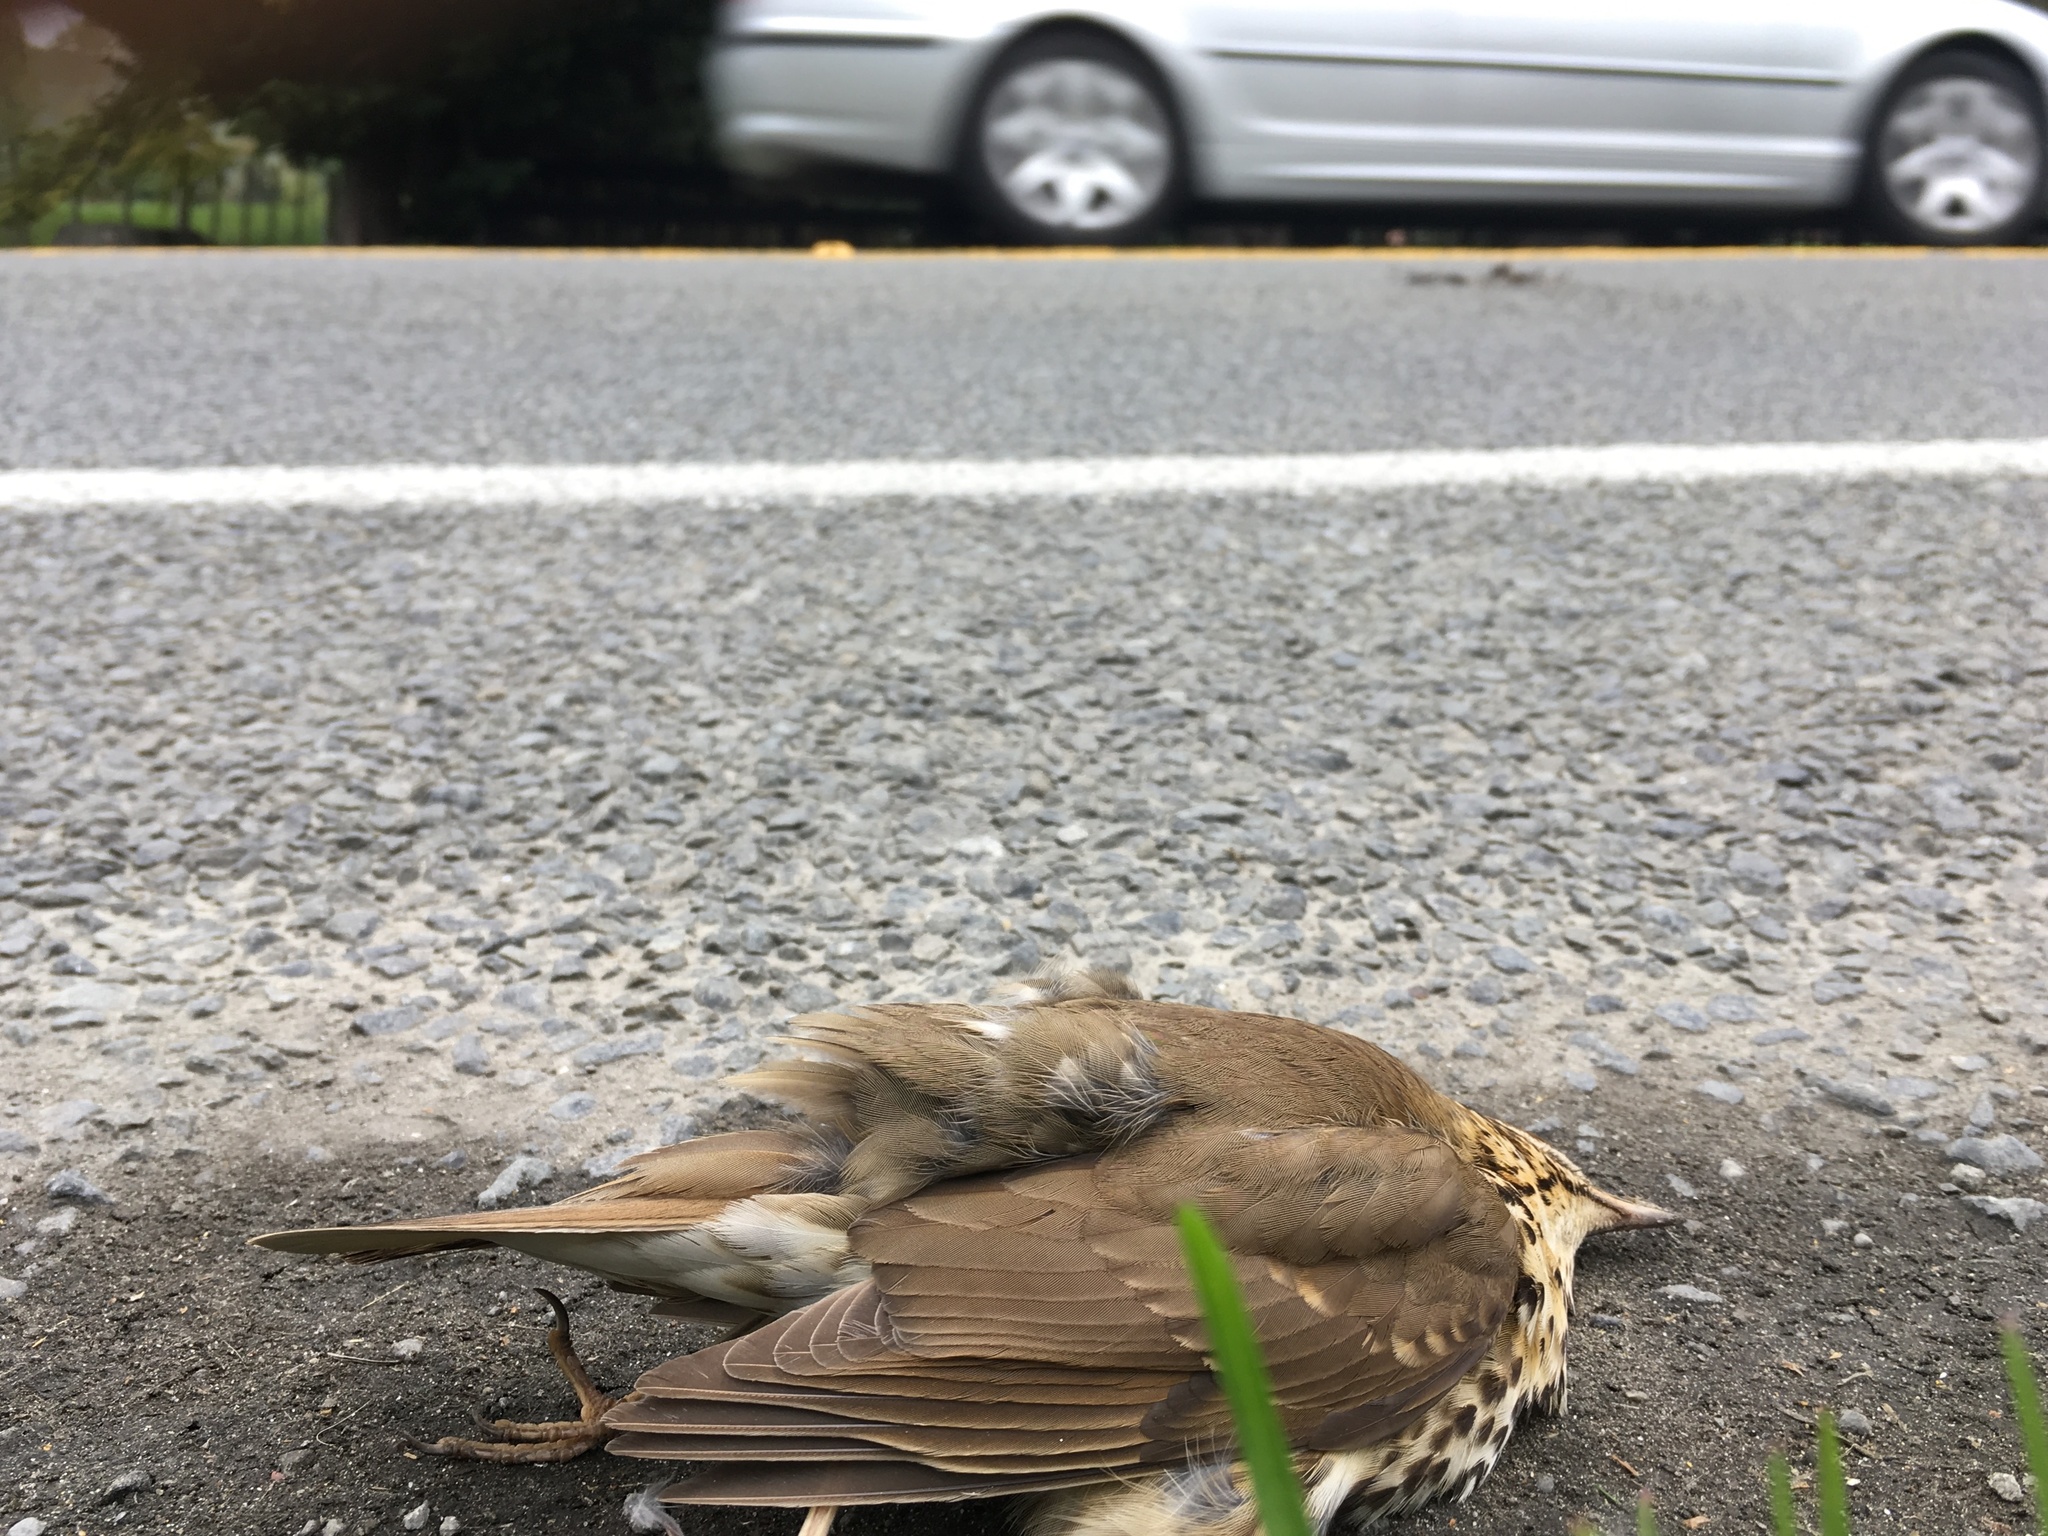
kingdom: Animalia
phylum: Chordata
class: Aves
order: Passeriformes
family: Turdidae
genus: Turdus
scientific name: Turdus philomelos
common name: Song thrush
